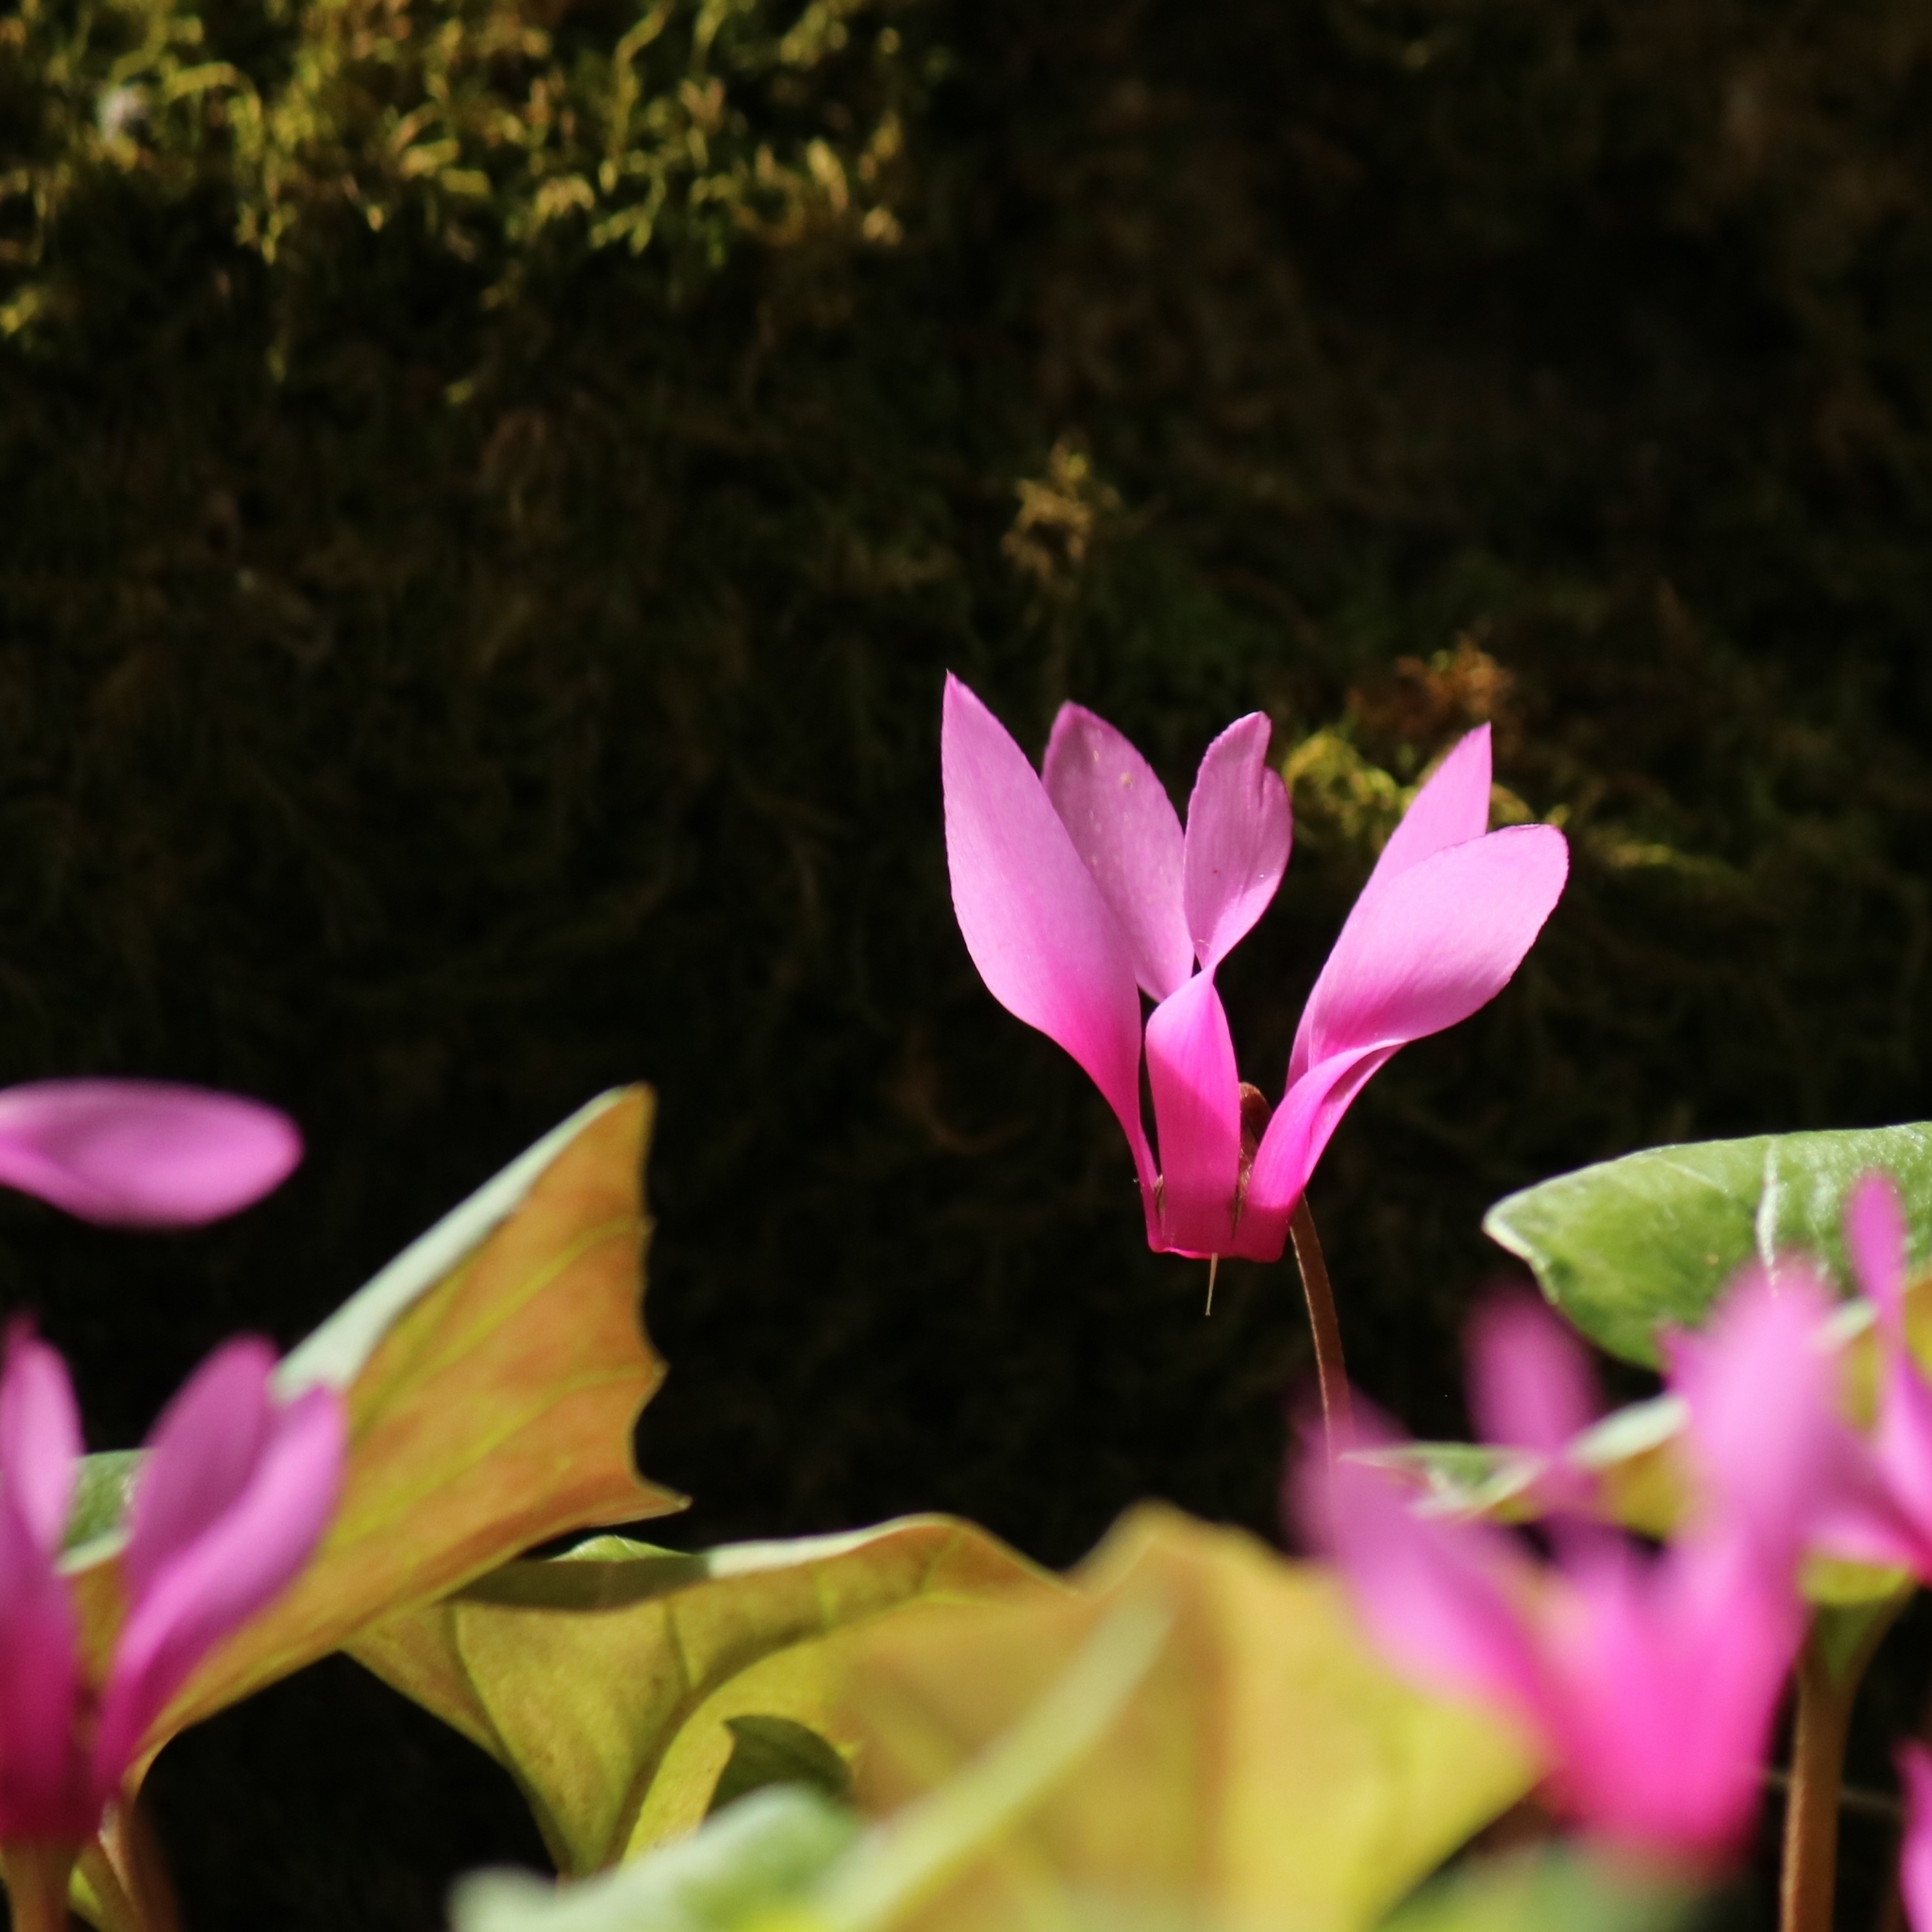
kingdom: Plantae
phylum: Tracheophyta
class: Magnoliopsida
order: Ericales
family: Primulaceae
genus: Cyclamen
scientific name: Cyclamen repandum
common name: Spring sowbread
